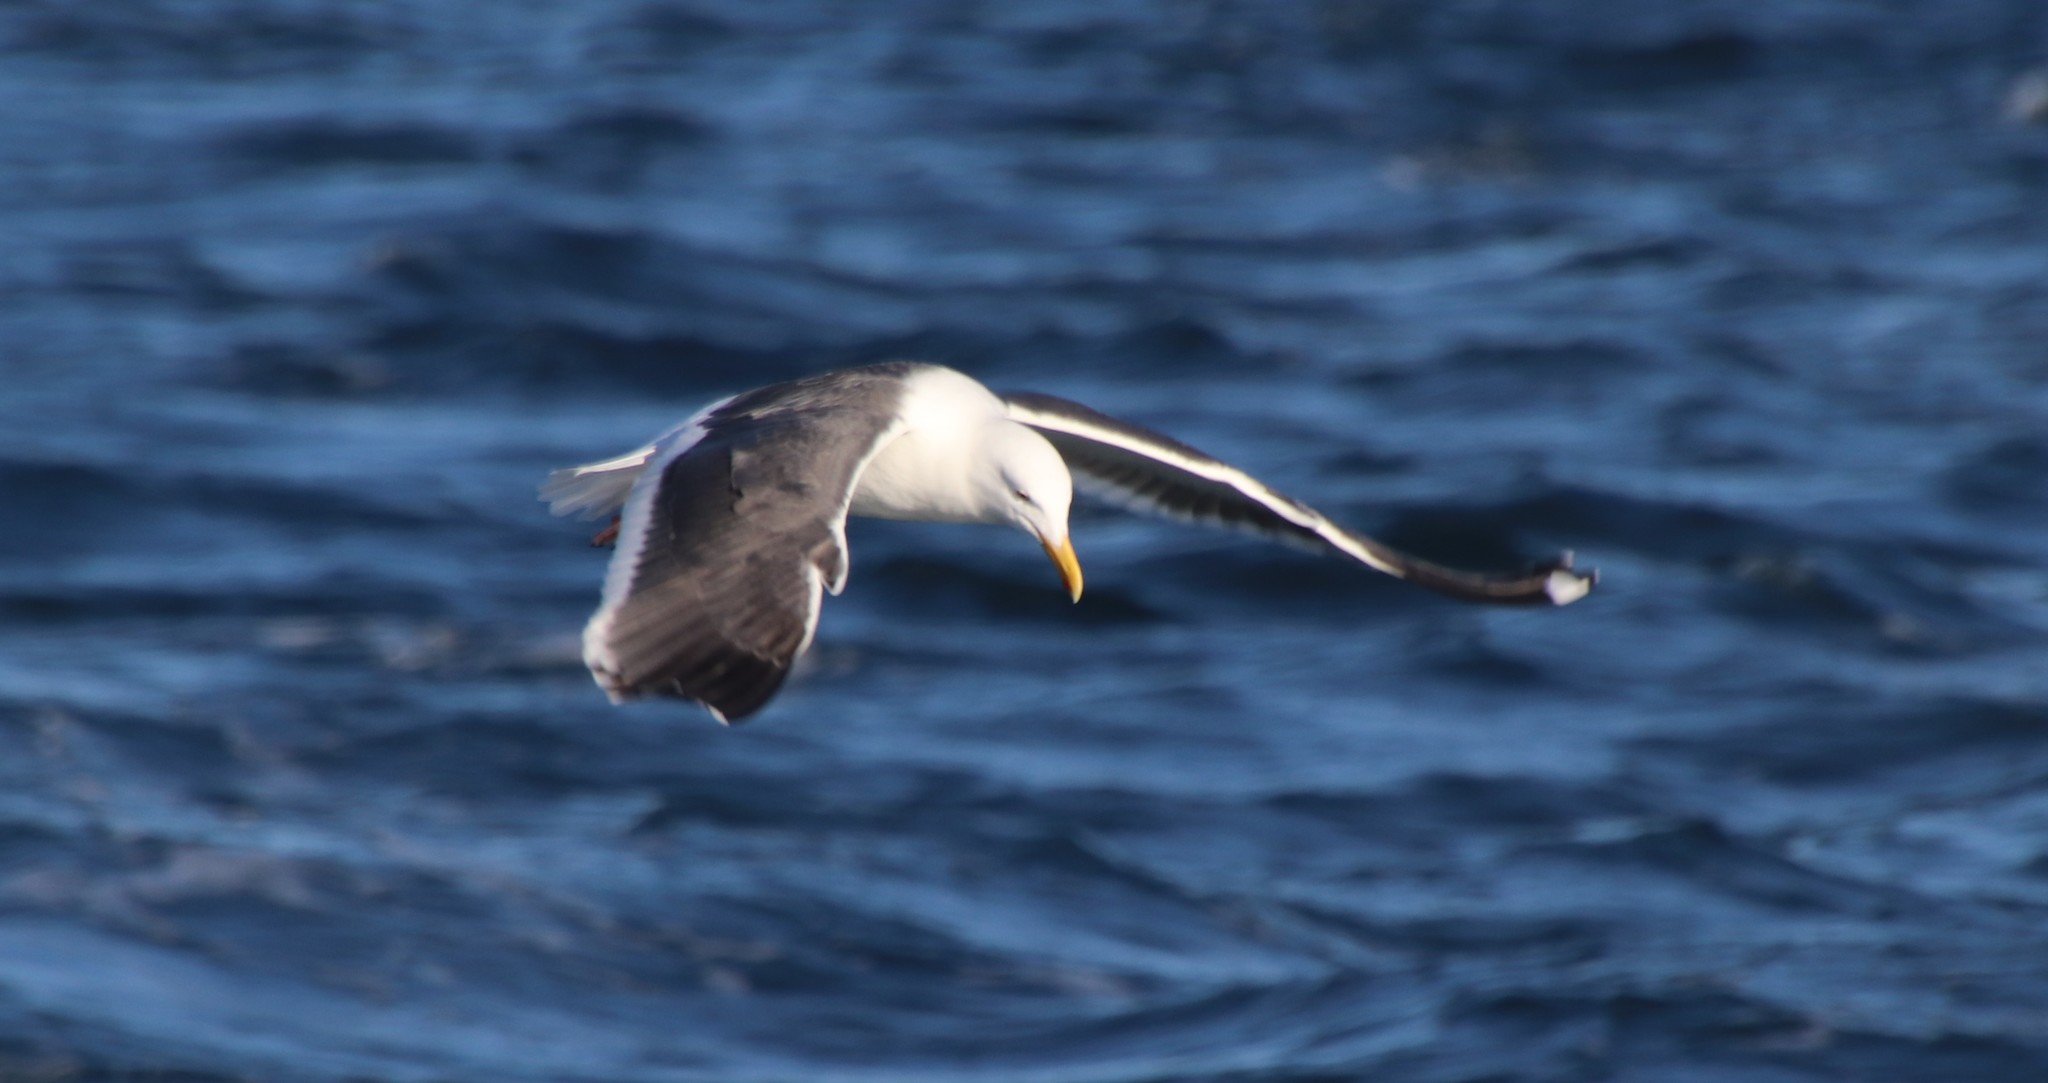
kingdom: Animalia
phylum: Chordata
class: Aves
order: Charadriiformes
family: Laridae
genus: Larus
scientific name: Larus occidentalis
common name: Western gull
